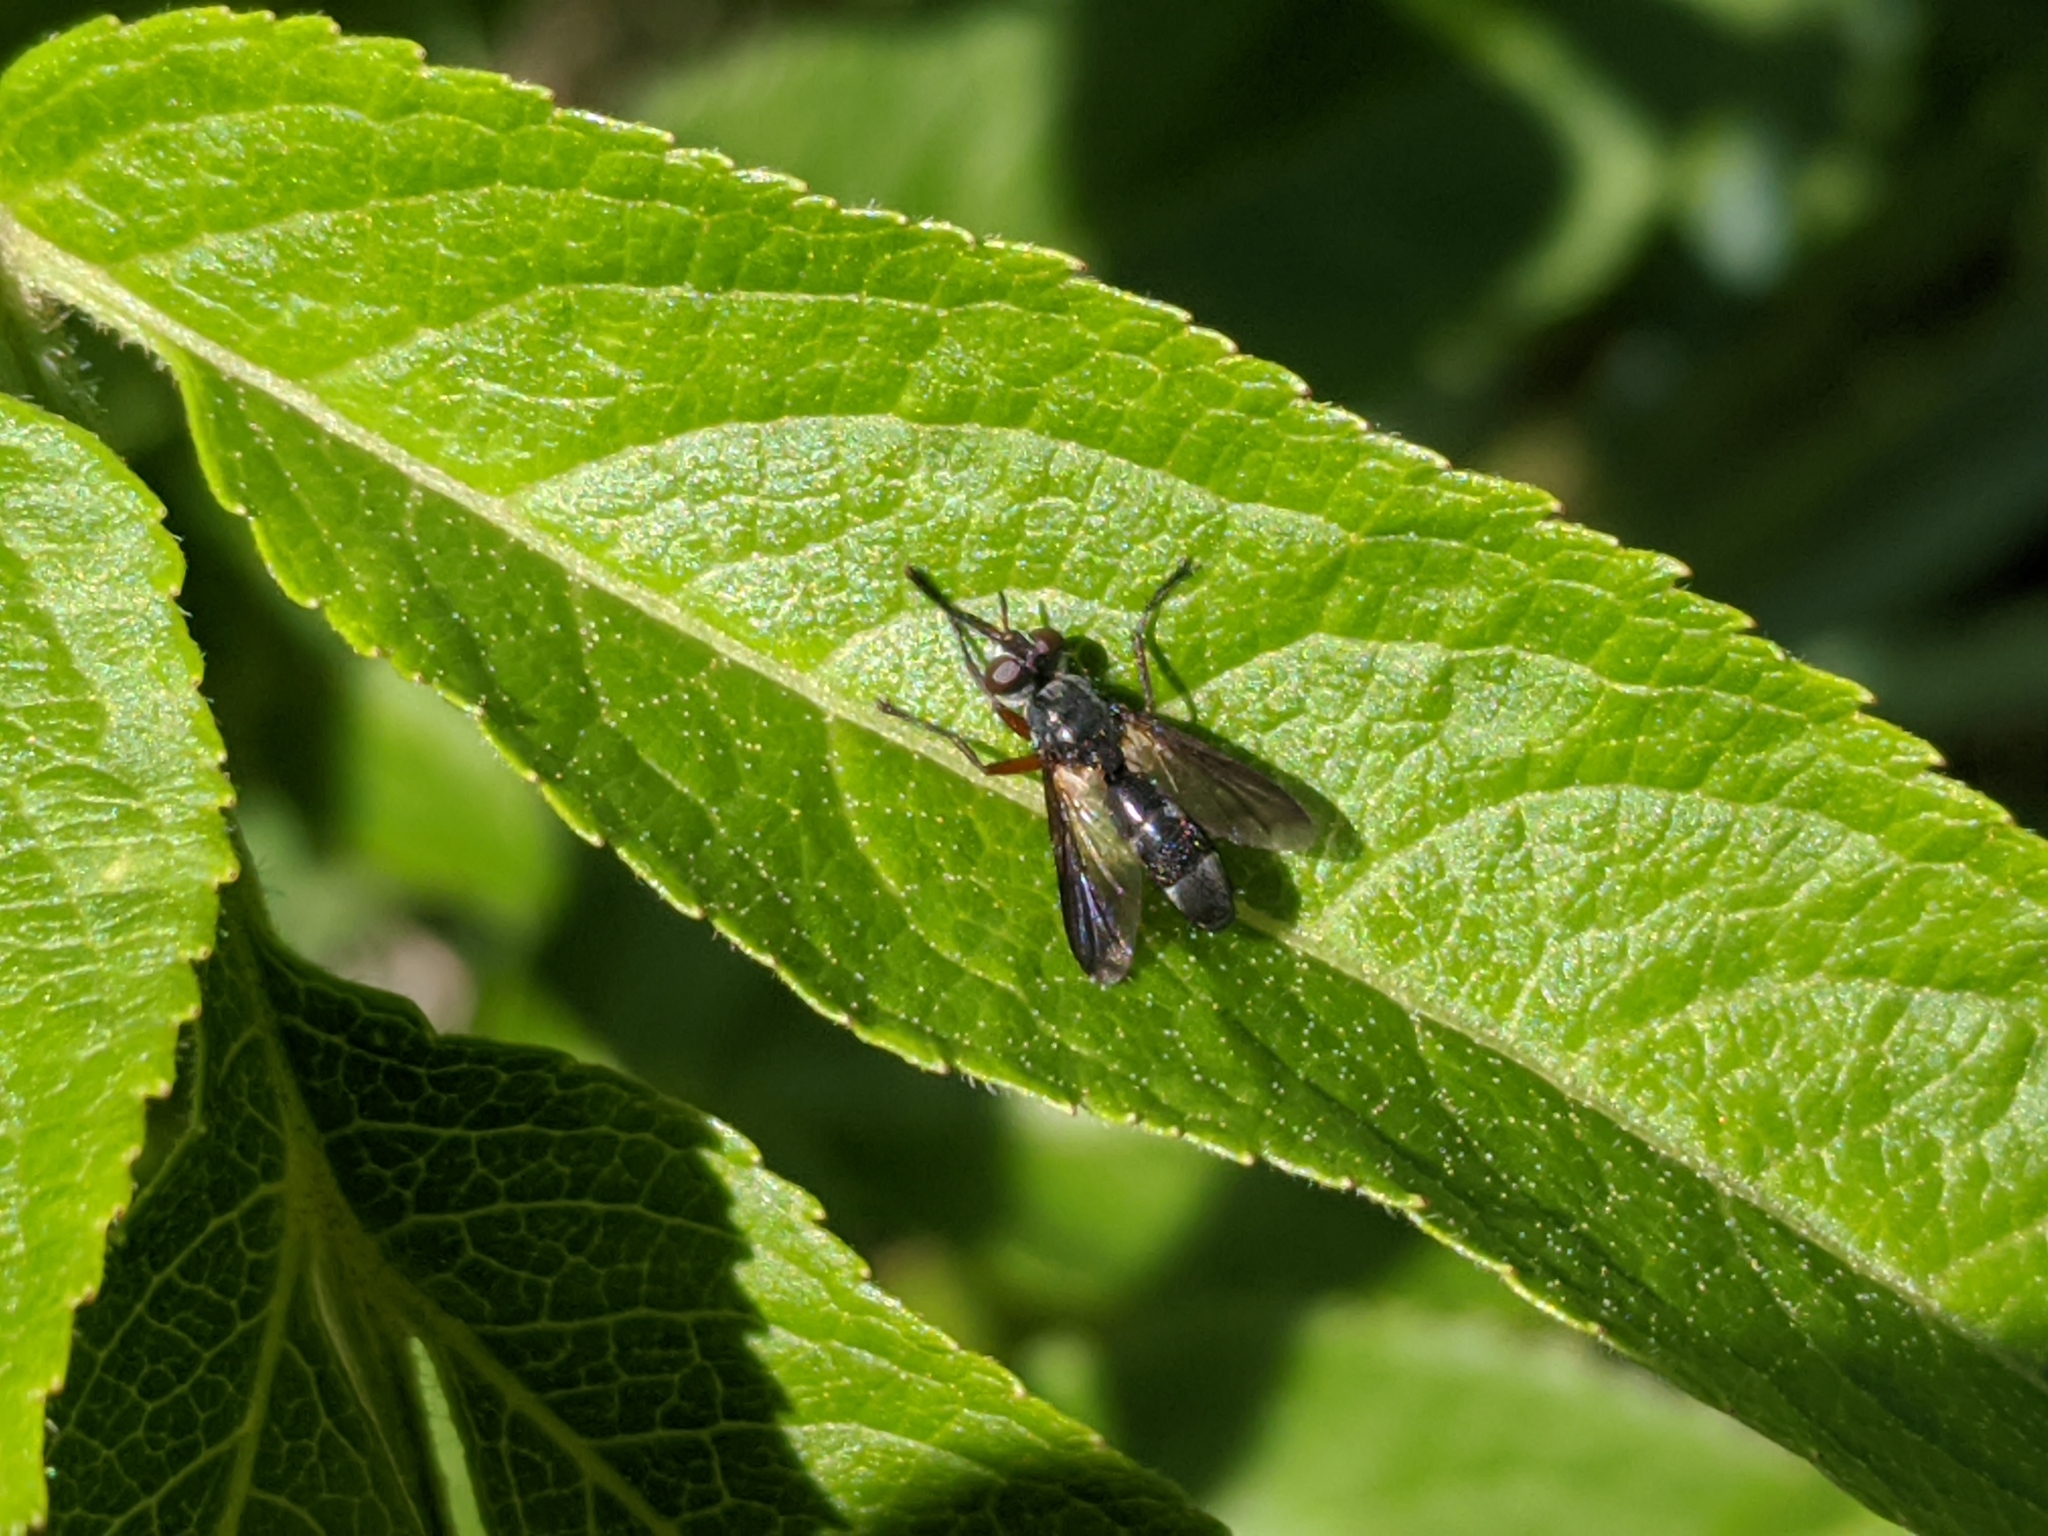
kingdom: Animalia
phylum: Arthropoda
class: Insecta
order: Diptera
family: Tachinidae
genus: Cylindromyia
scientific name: Cylindromyia rufipes
